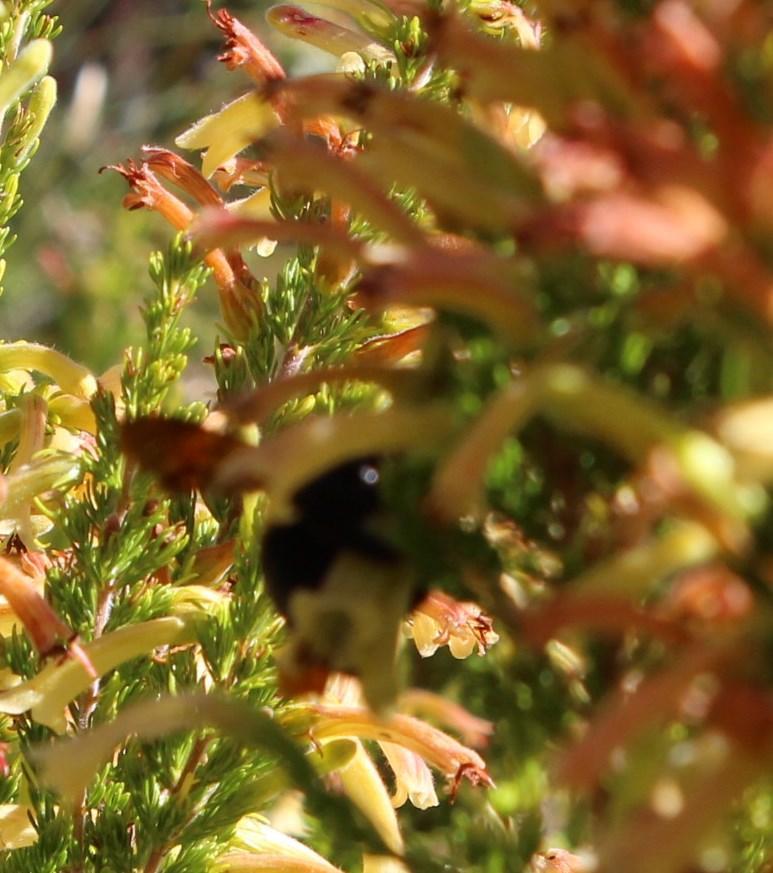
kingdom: Animalia
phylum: Arthropoda
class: Insecta
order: Hymenoptera
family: Apidae
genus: Xylocopa
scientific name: Xylocopa caffra
